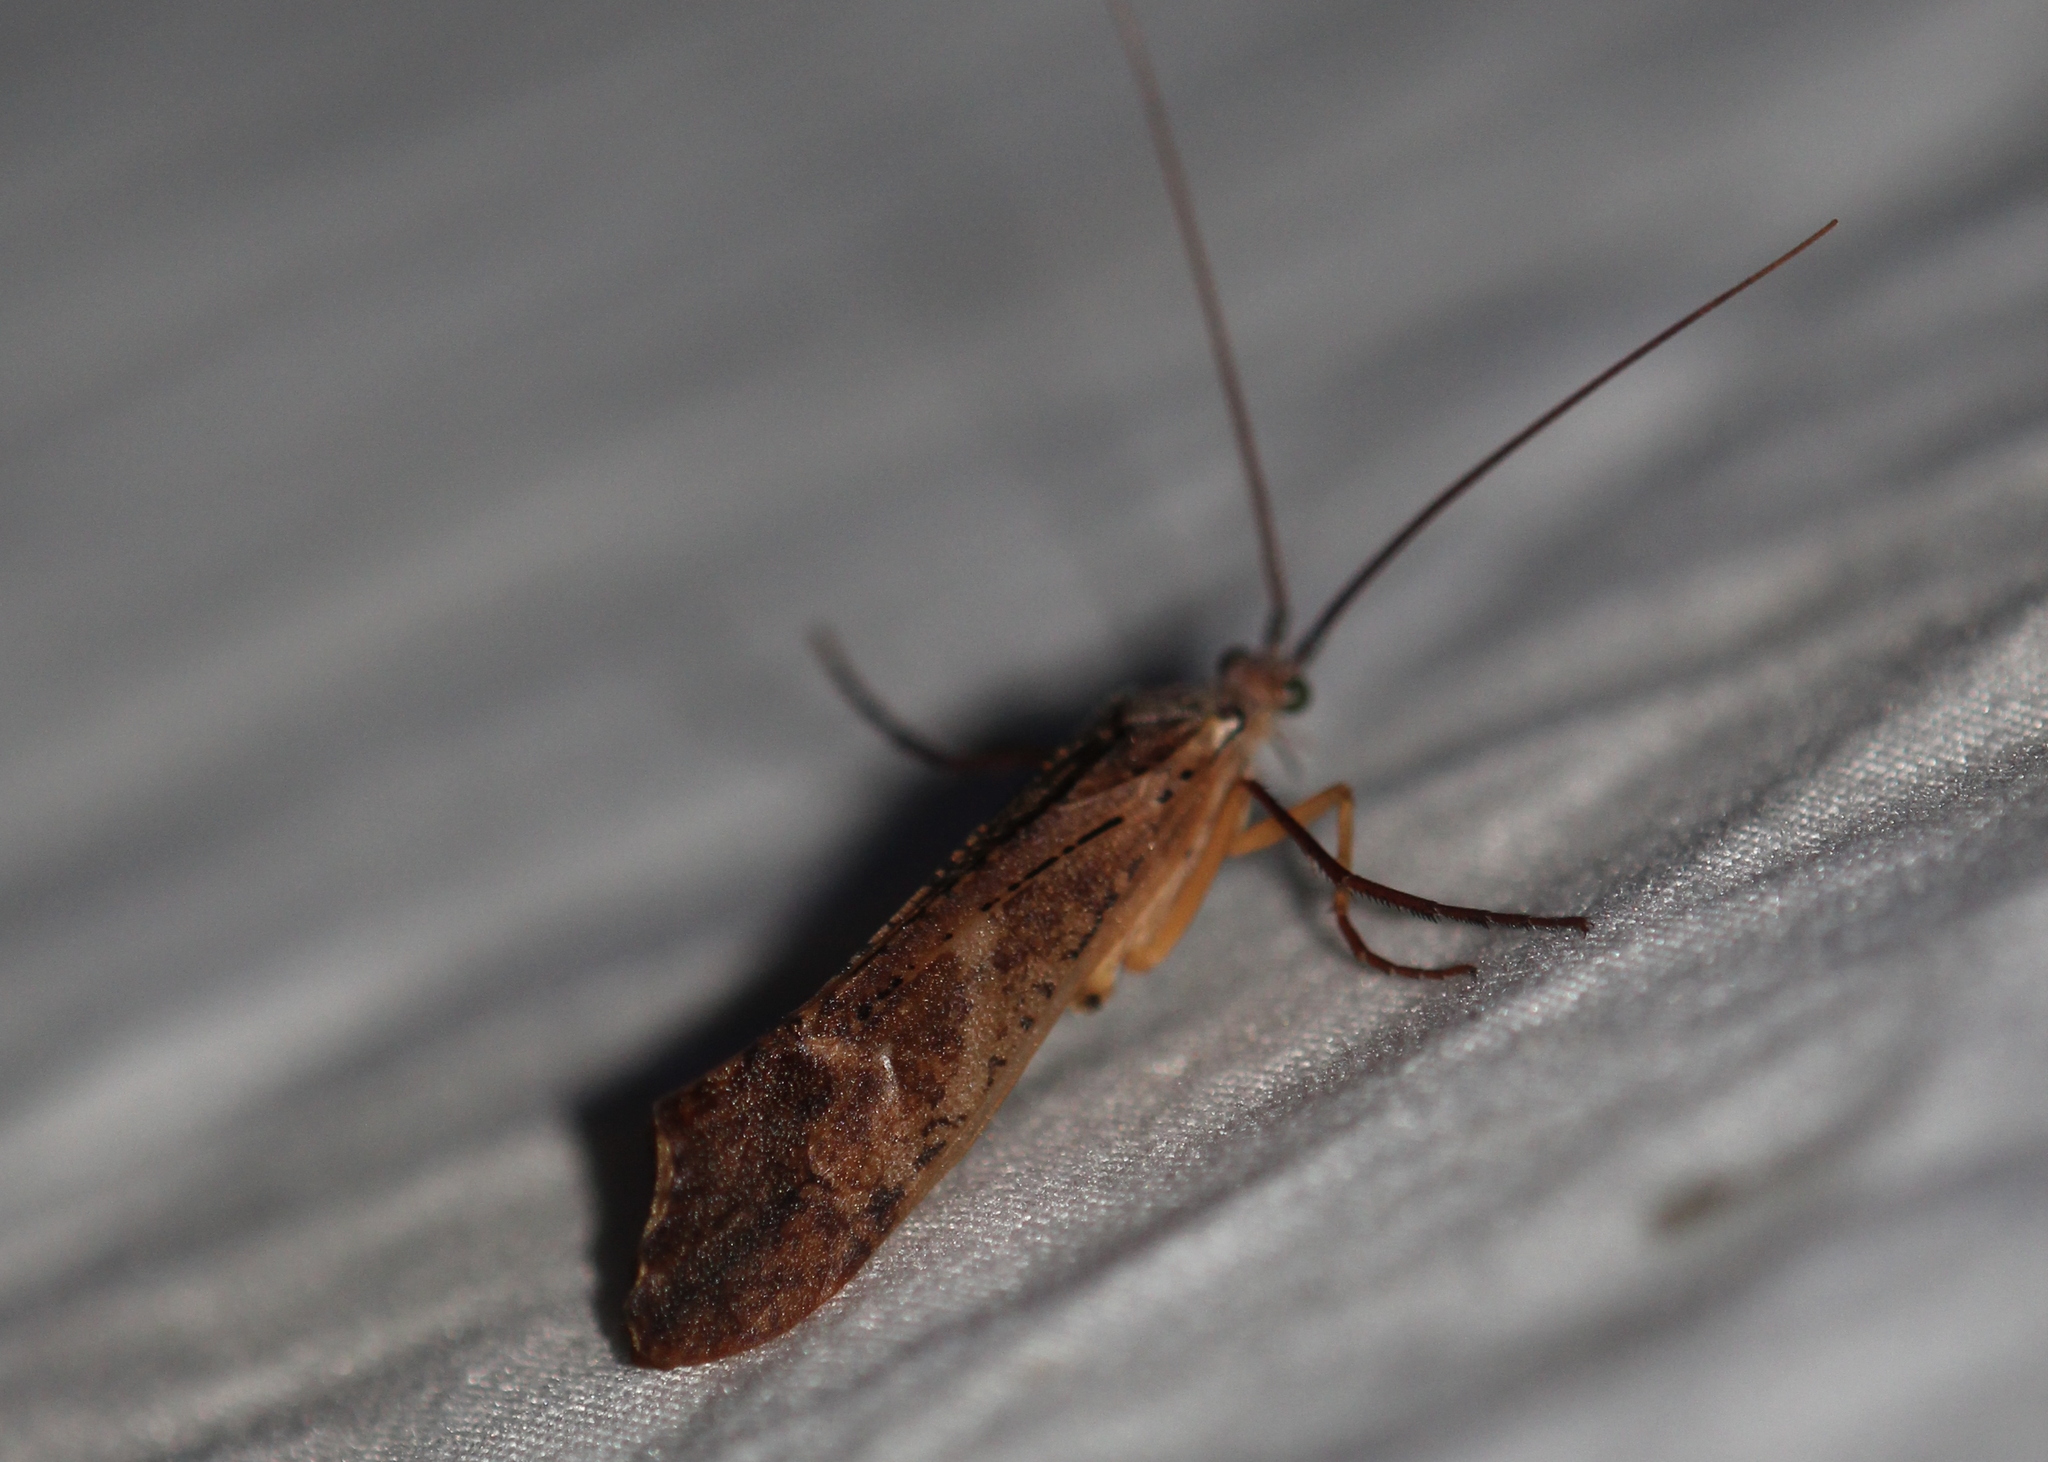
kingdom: Animalia
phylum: Arthropoda
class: Insecta
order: Trichoptera
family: Limnephilidae
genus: Nemotaulius
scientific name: Nemotaulius hostilis
